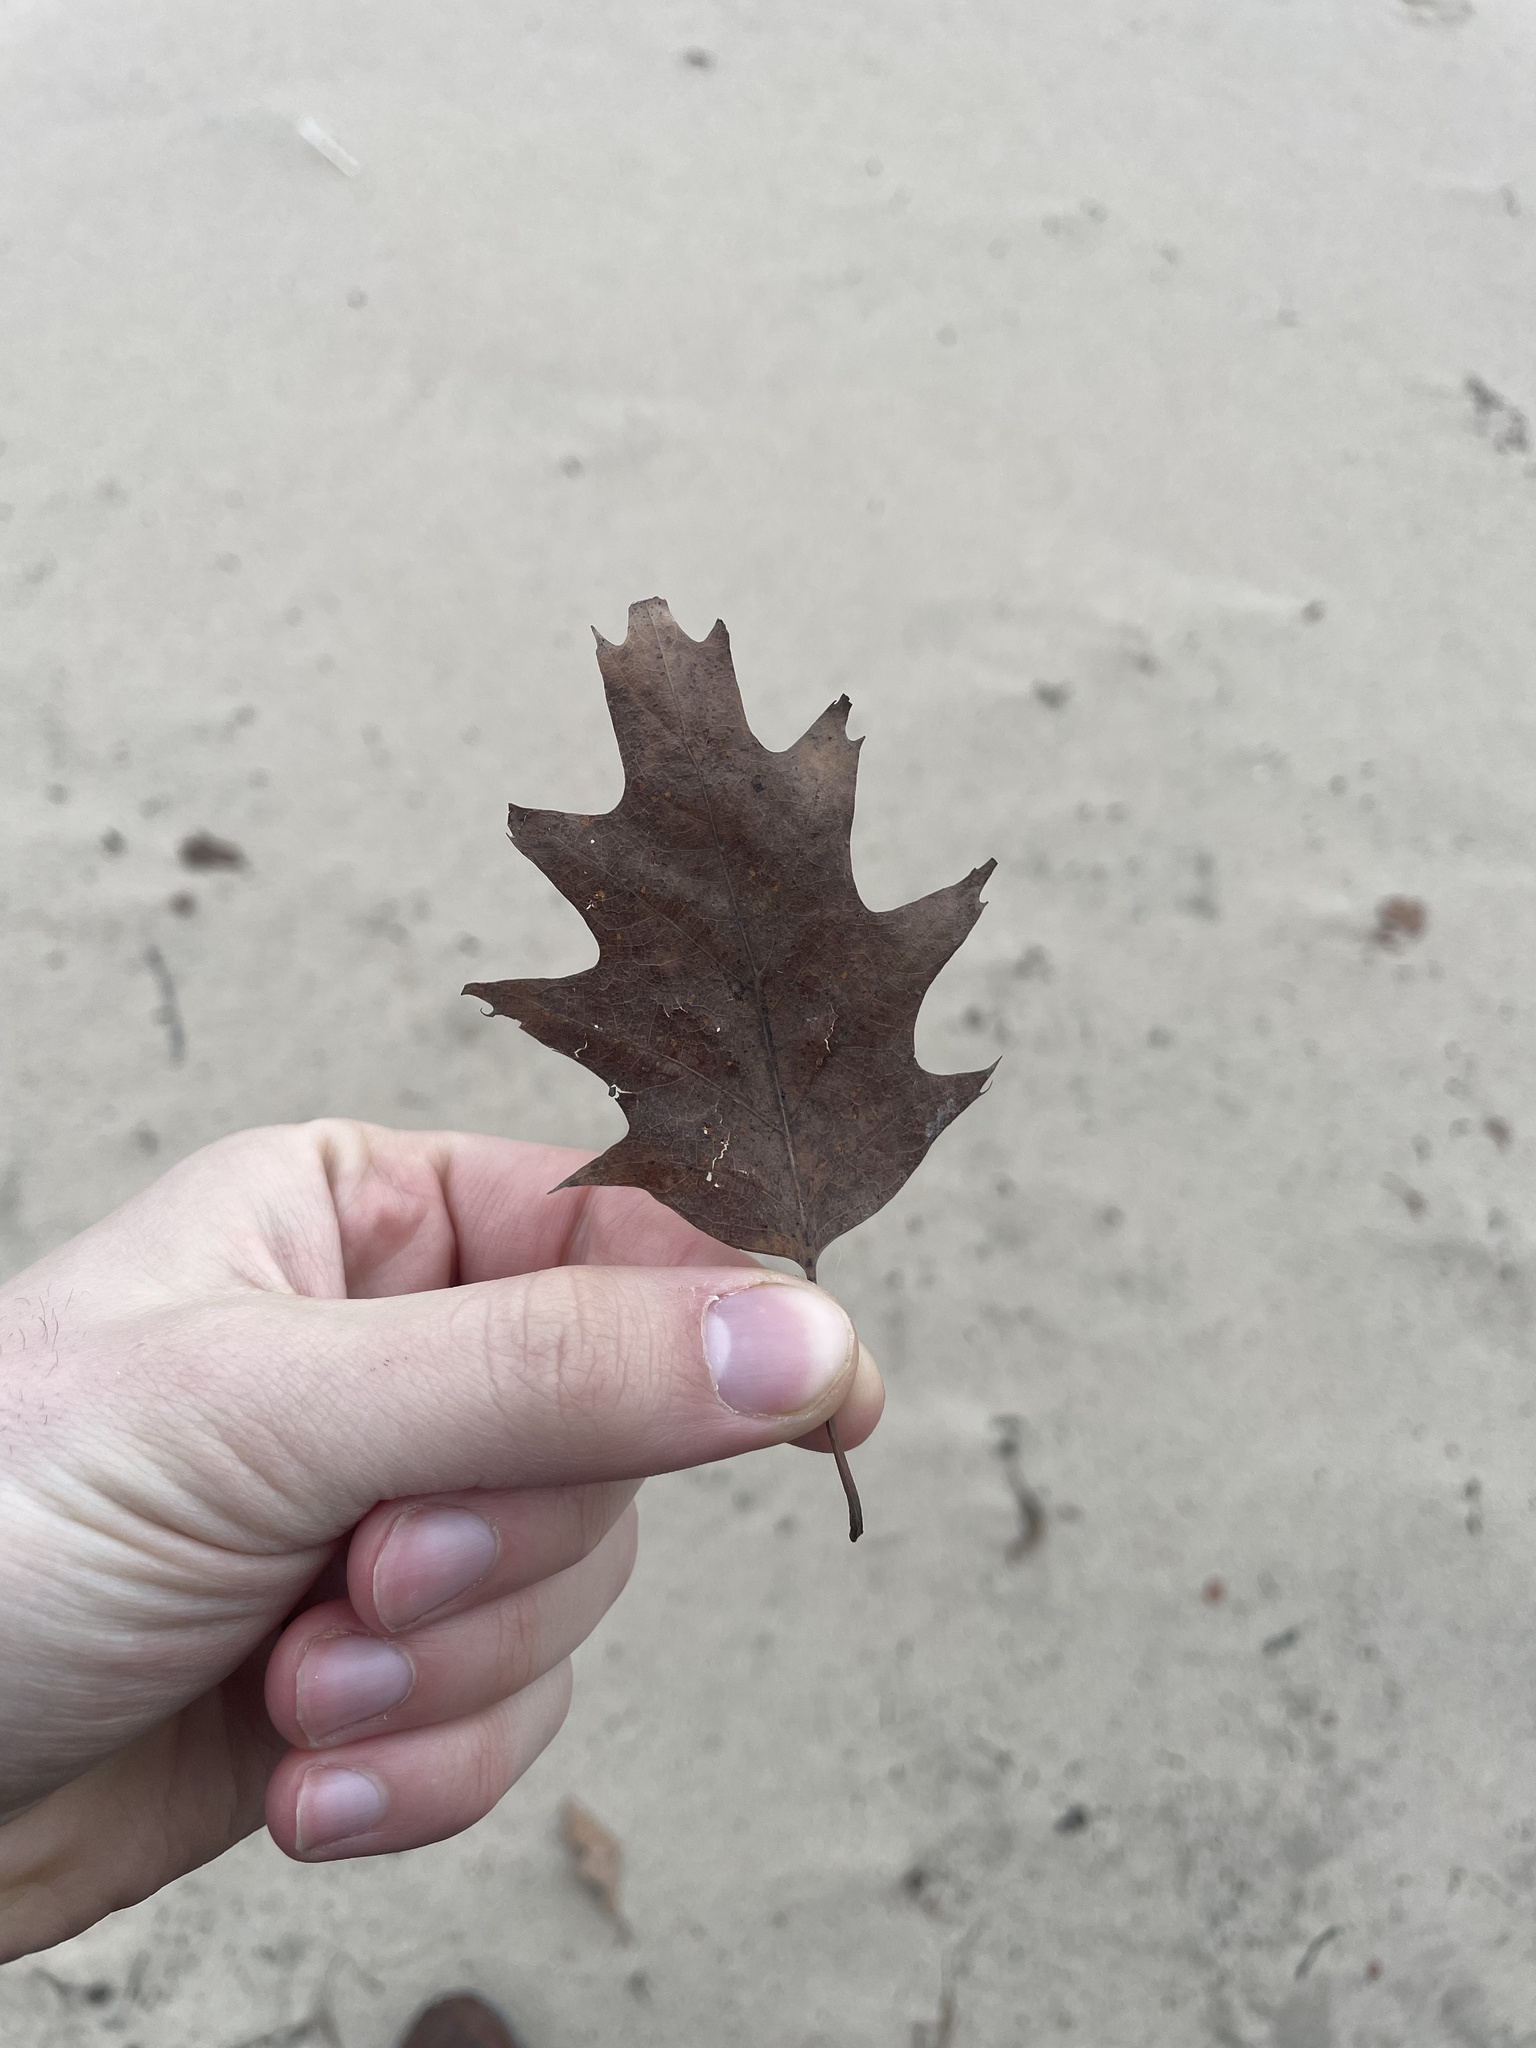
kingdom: Plantae
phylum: Tracheophyta
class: Magnoliopsida
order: Fagales
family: Fagaceae
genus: Quercus
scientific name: Quercus rubra
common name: Red oak
